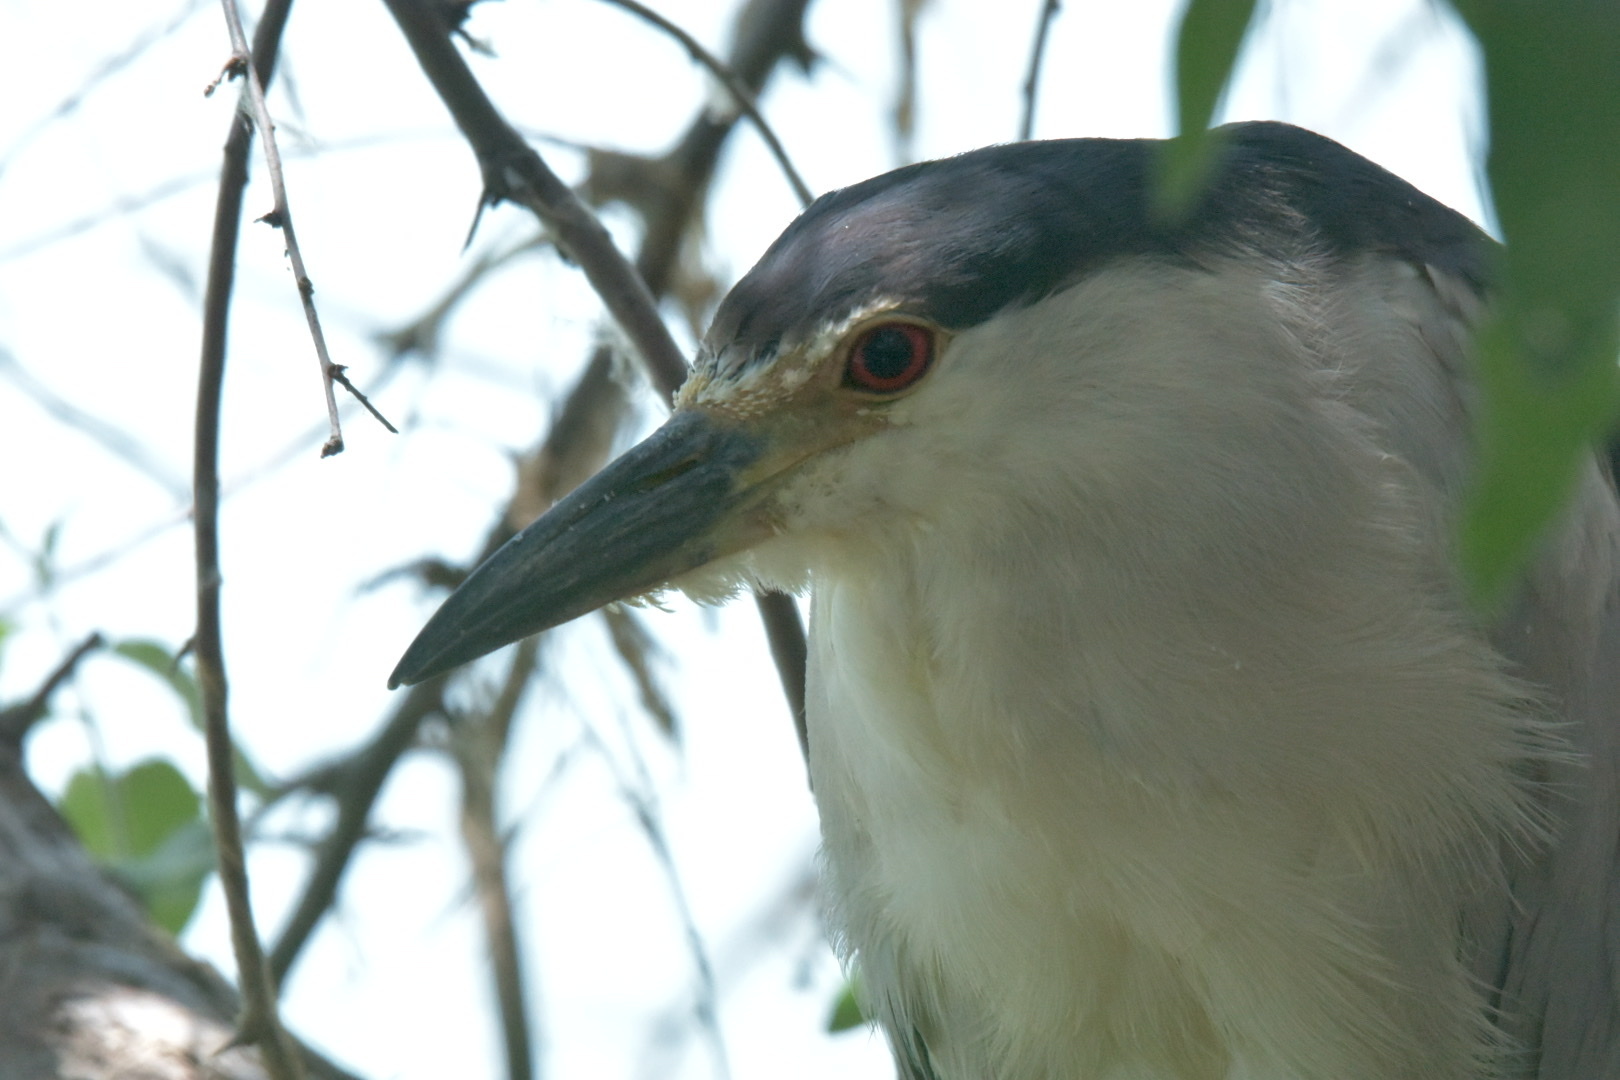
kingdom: Animalia
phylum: Chordata
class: Aves
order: Pelecaniformes
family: Ardeidae
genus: Nycticorax
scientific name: Nycticorax nycticorax
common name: Black-crowned night heron
